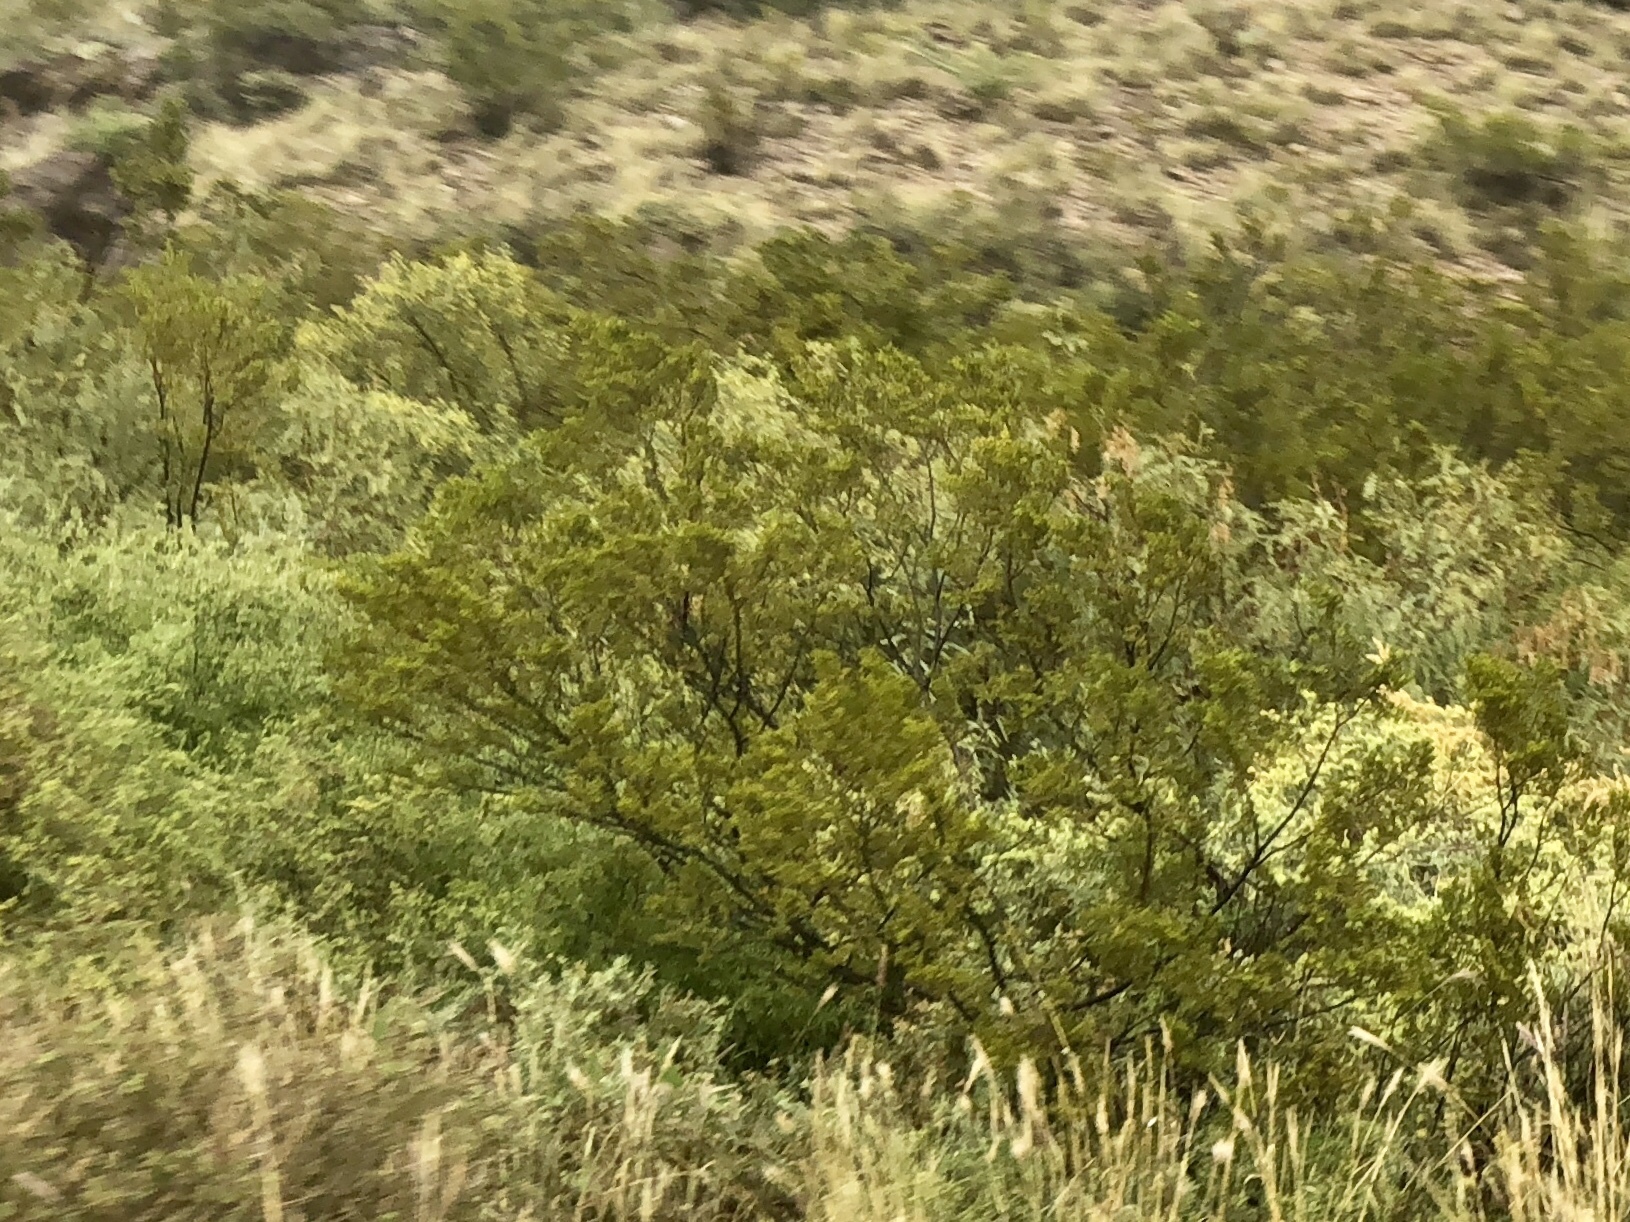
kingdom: Plantae
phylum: Tracheophyta
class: Magnoliopsida
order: Zygophyllales
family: Zygophyllaceae
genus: Larrea
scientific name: Larrea tridentata
